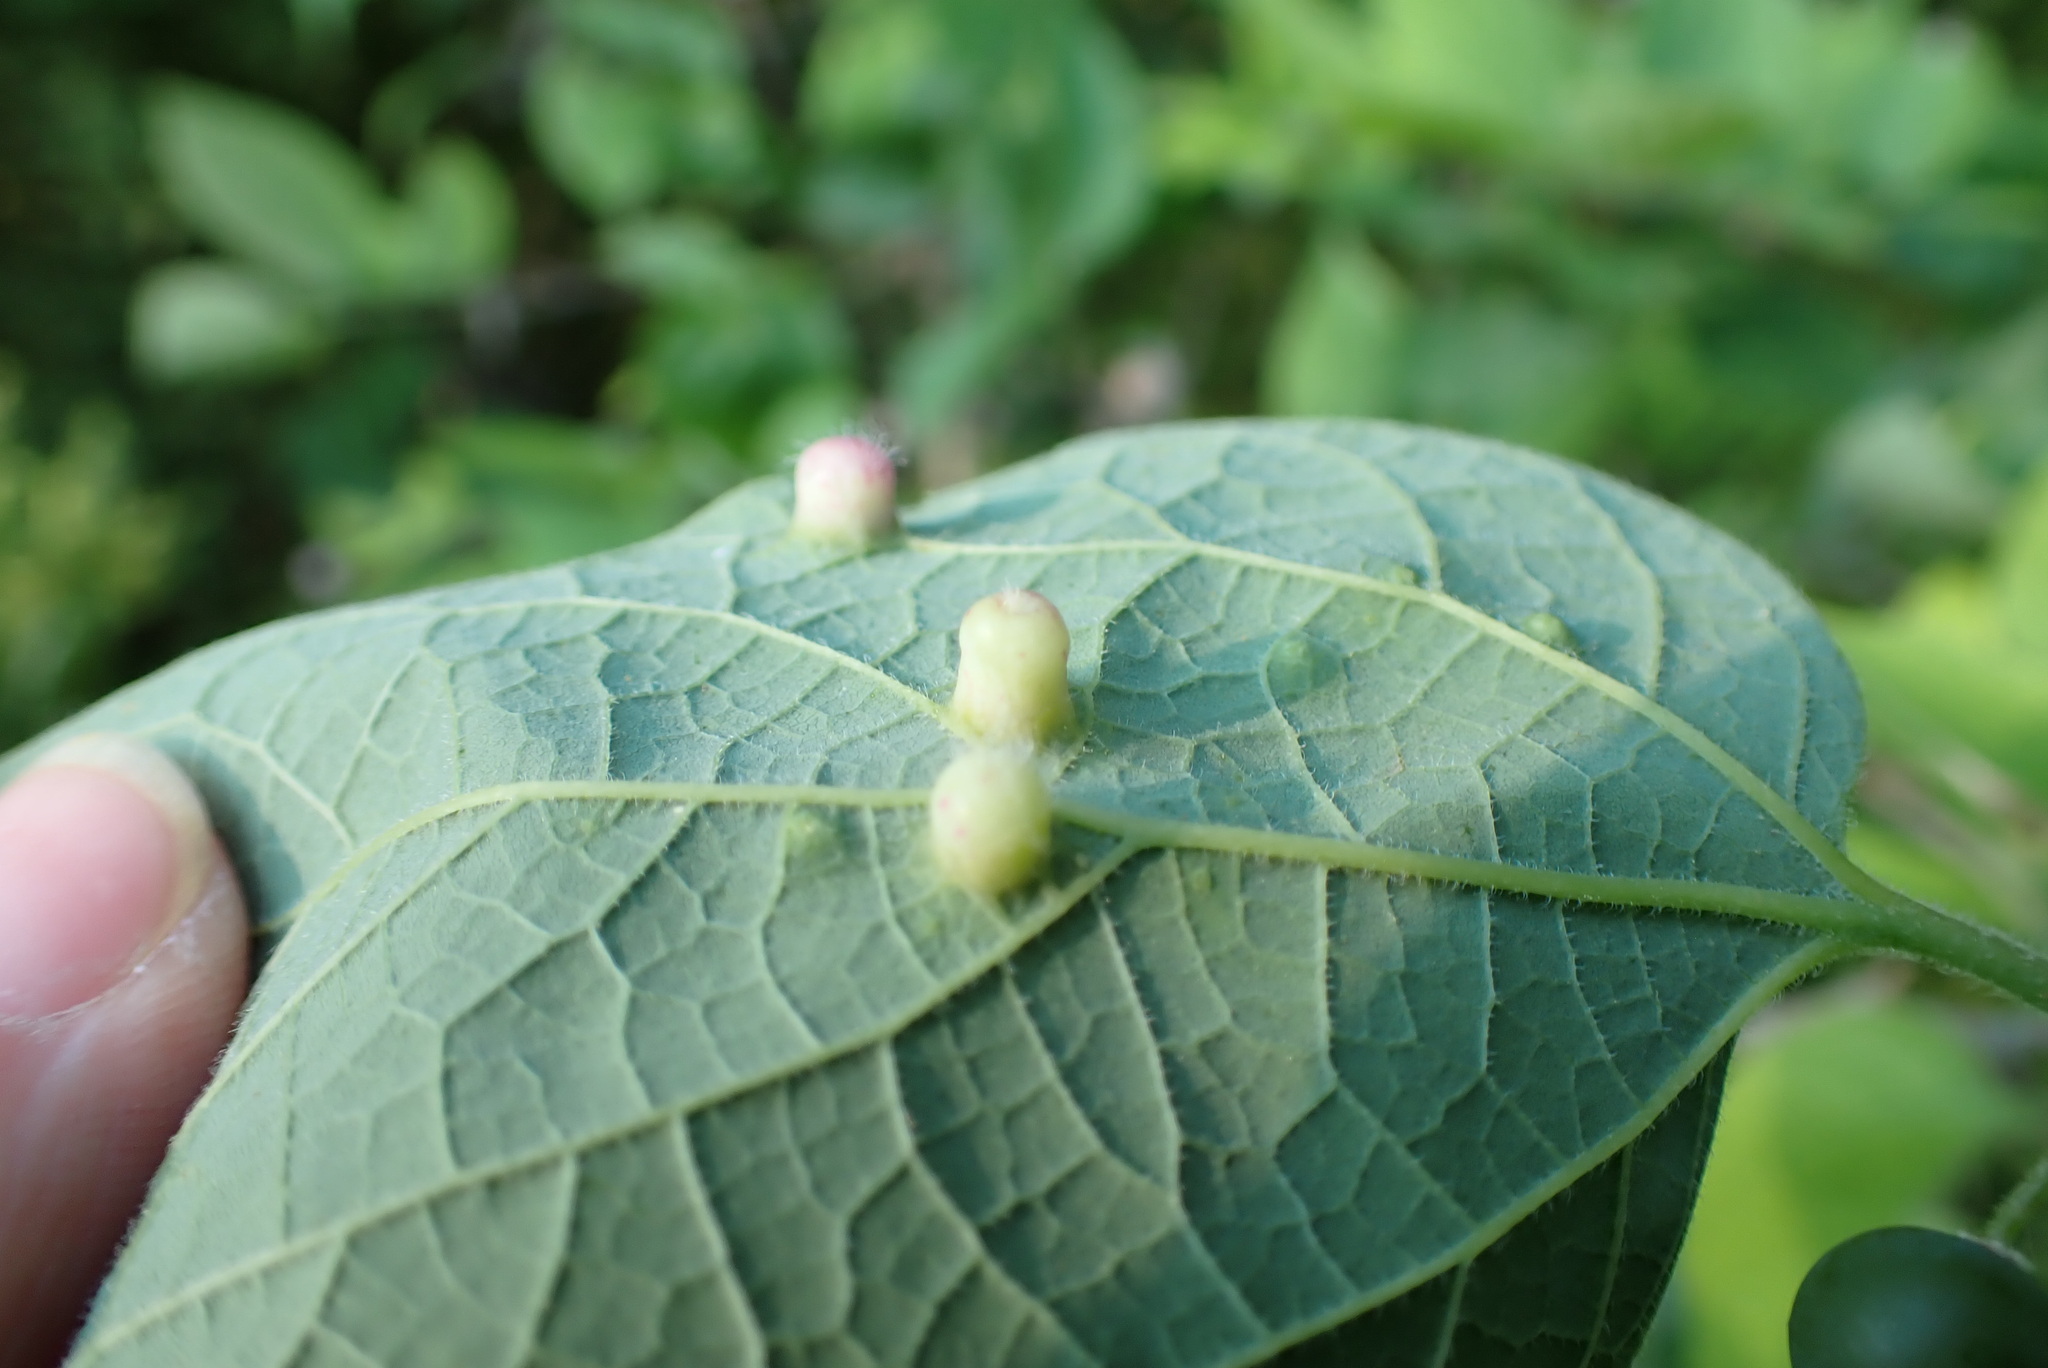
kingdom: Animalia
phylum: Arthropoda
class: Insecta
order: Hemiptera
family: Aphalaridae
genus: Pachypsylla
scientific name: Pachypsylla celtidismamma
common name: Hackberry nipplegall psyllid
